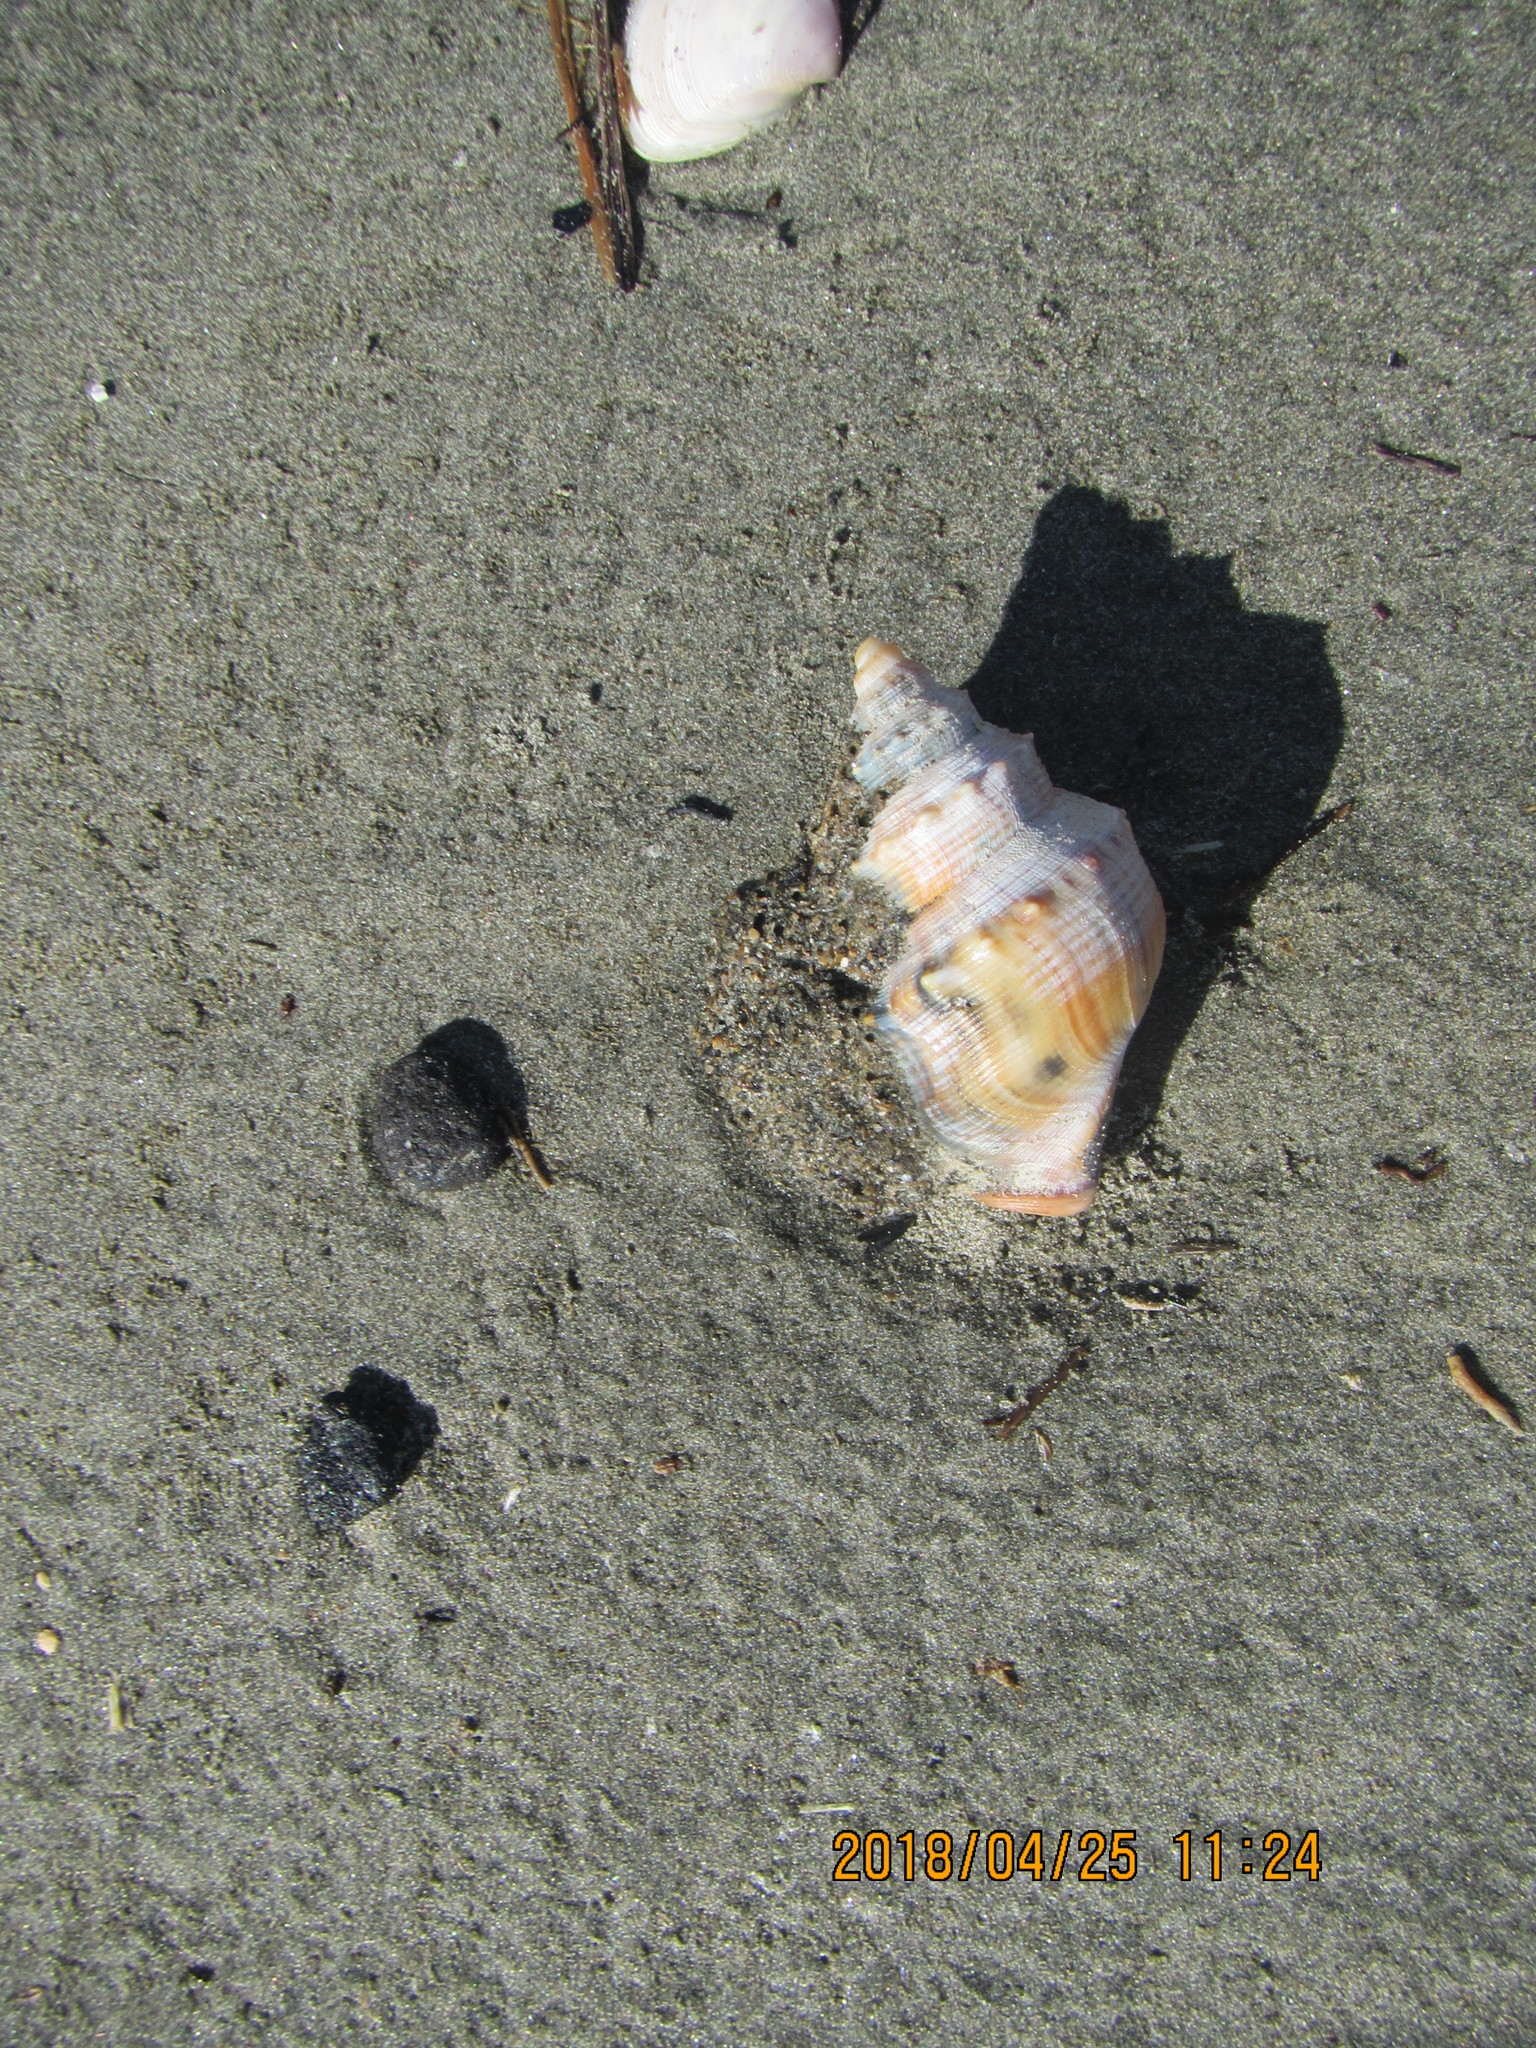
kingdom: Animalia
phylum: Mollusca
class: Gastropoda
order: Littorinimorpha
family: Struthiolariidae
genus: Struthiolaria
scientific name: Struthiolaria papulosa
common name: Large ostrich foot
